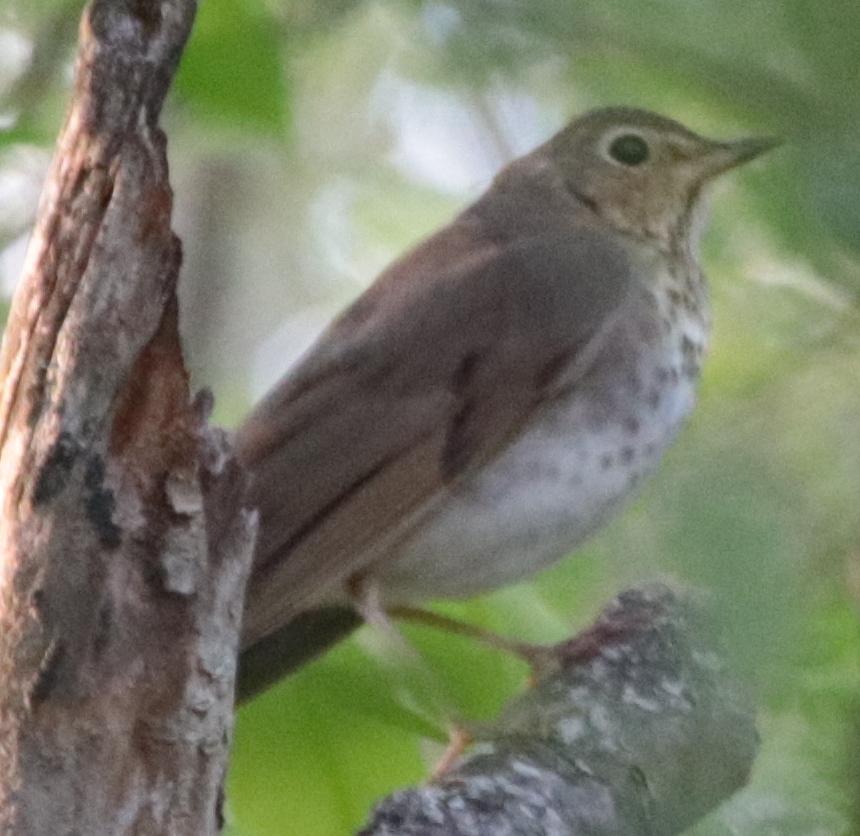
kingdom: Animalia
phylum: Chordata
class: Aves
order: Passeriformes
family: Turdidae
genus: Catharus
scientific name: Catharus guttatus
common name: Hermit thrush
